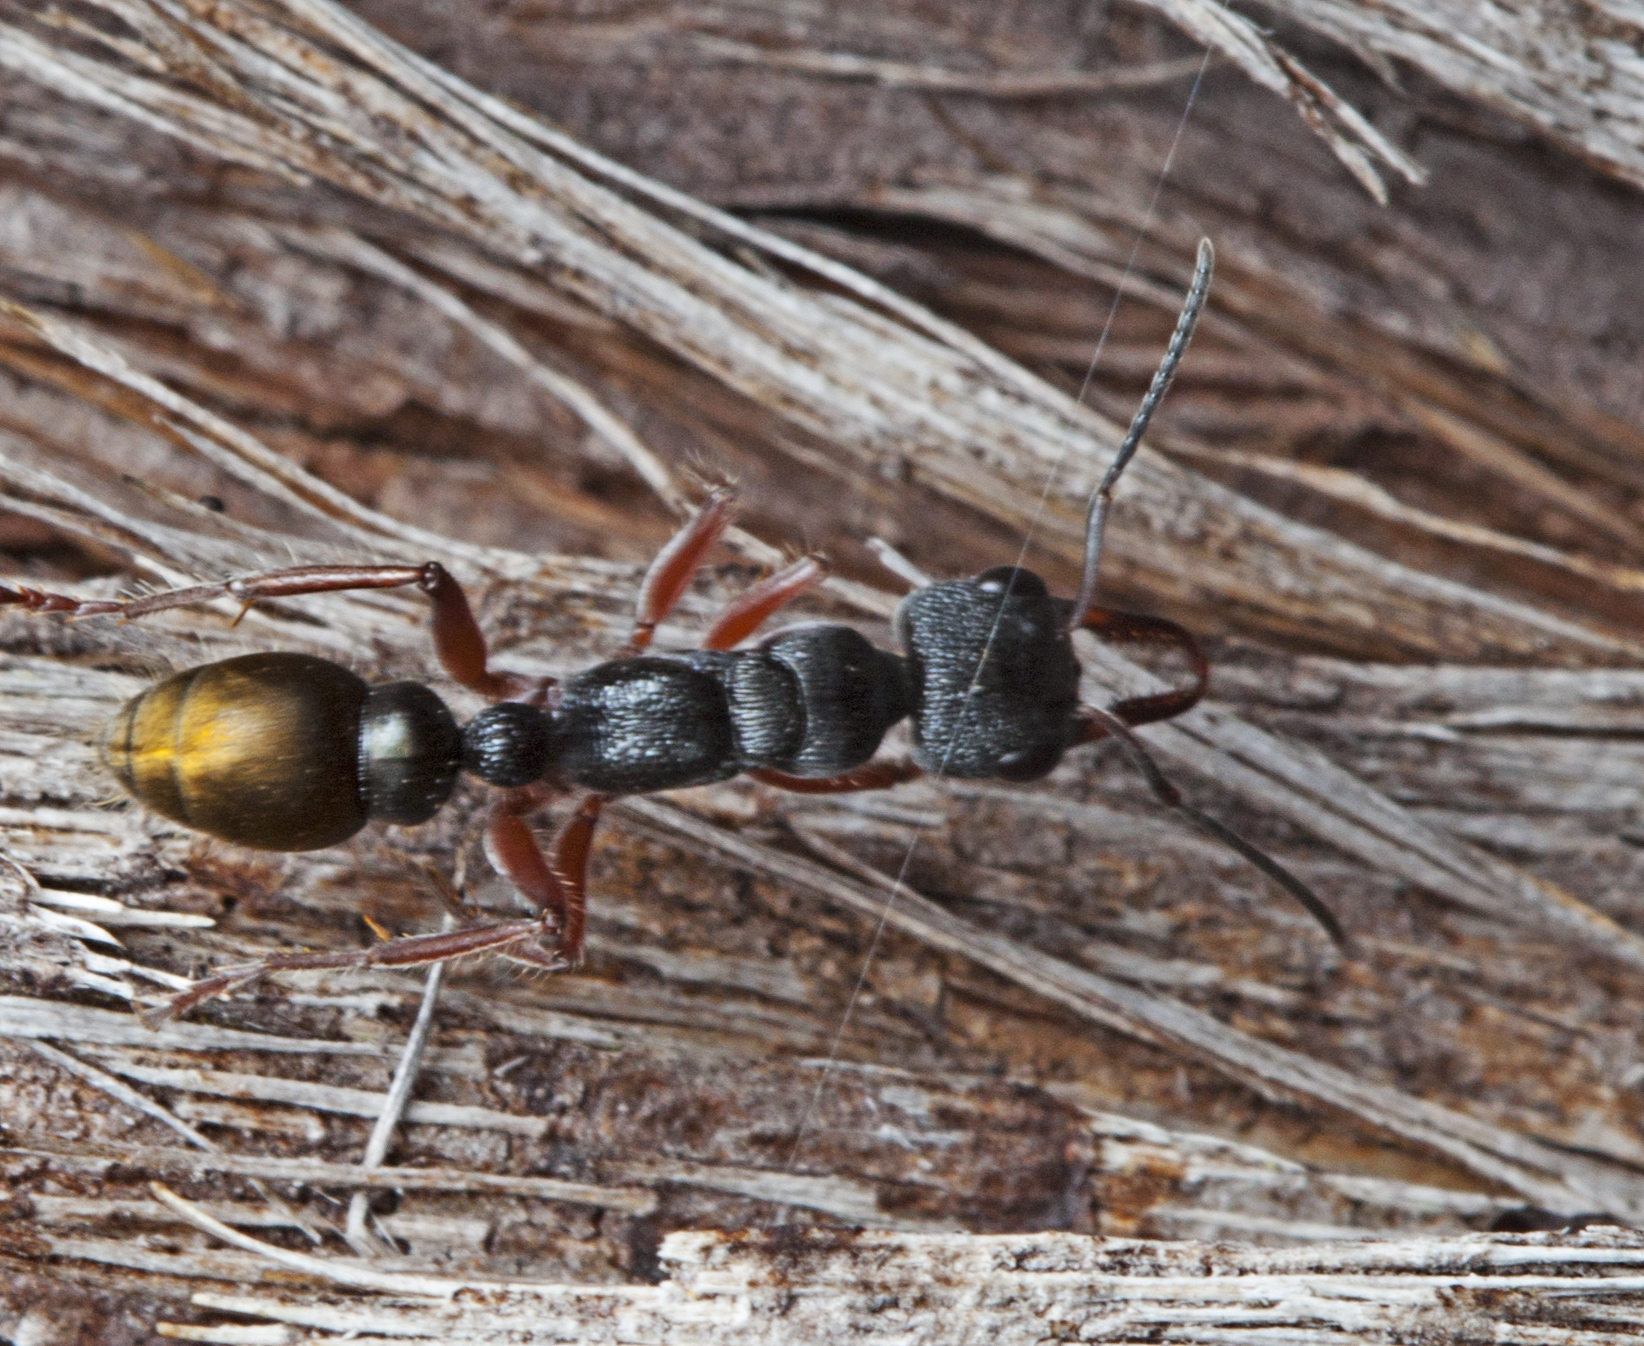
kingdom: Animalia
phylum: Arthropoda
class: Insecta
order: Hymenoptera
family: Formicidae
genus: Myrmecia
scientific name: Myrmecia chrysogaster
